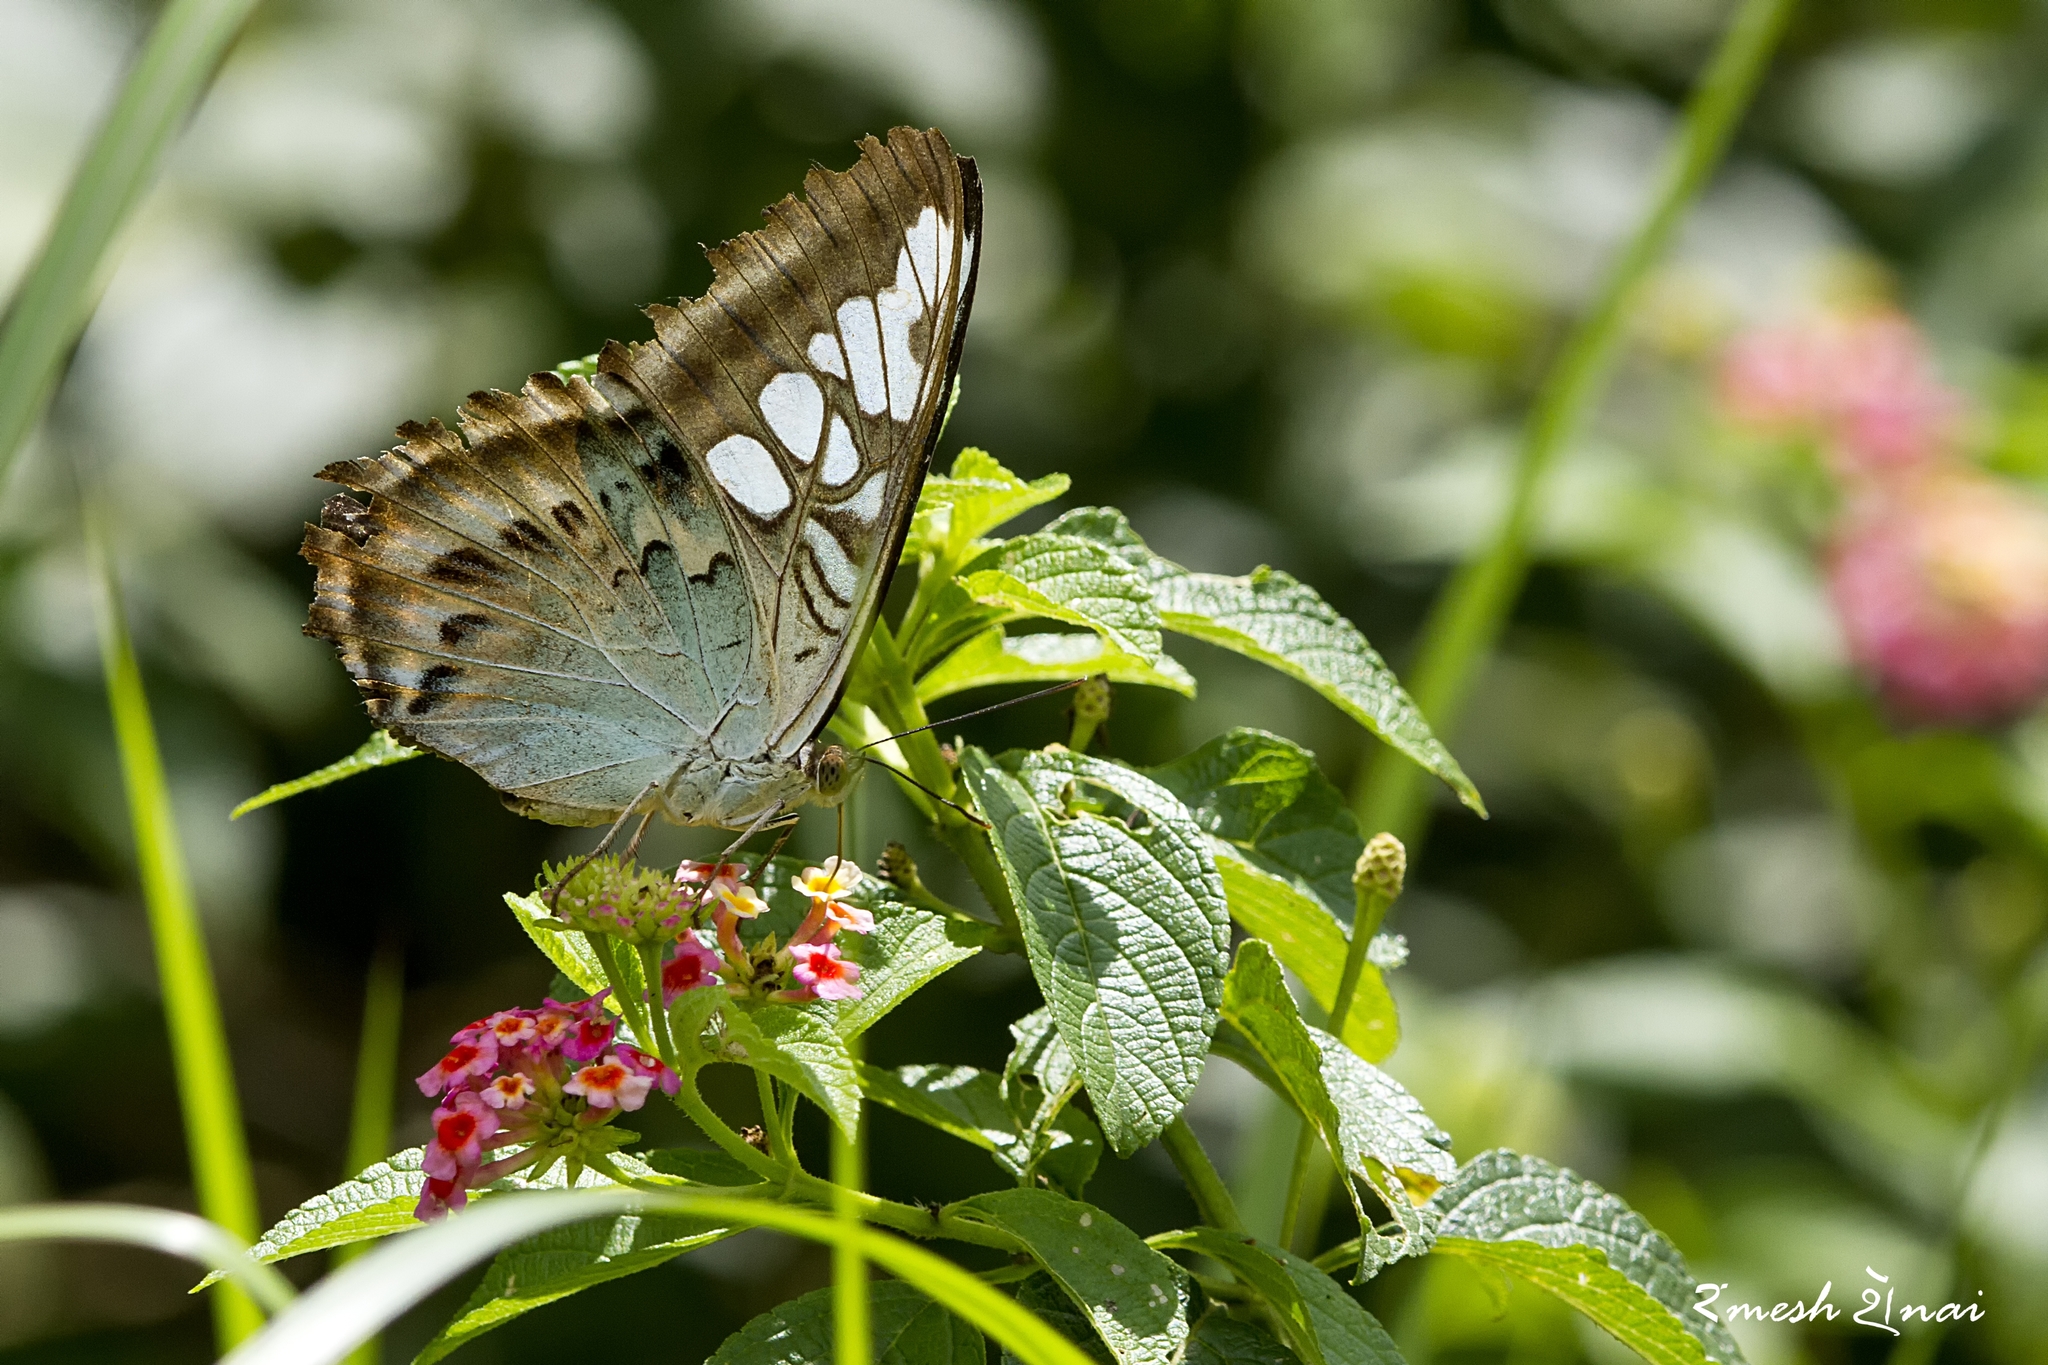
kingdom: Animalia
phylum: Arthropoda
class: Insecta
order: Lepidoptera
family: Nymphalidae
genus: Kallima
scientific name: Kallima sylvia
